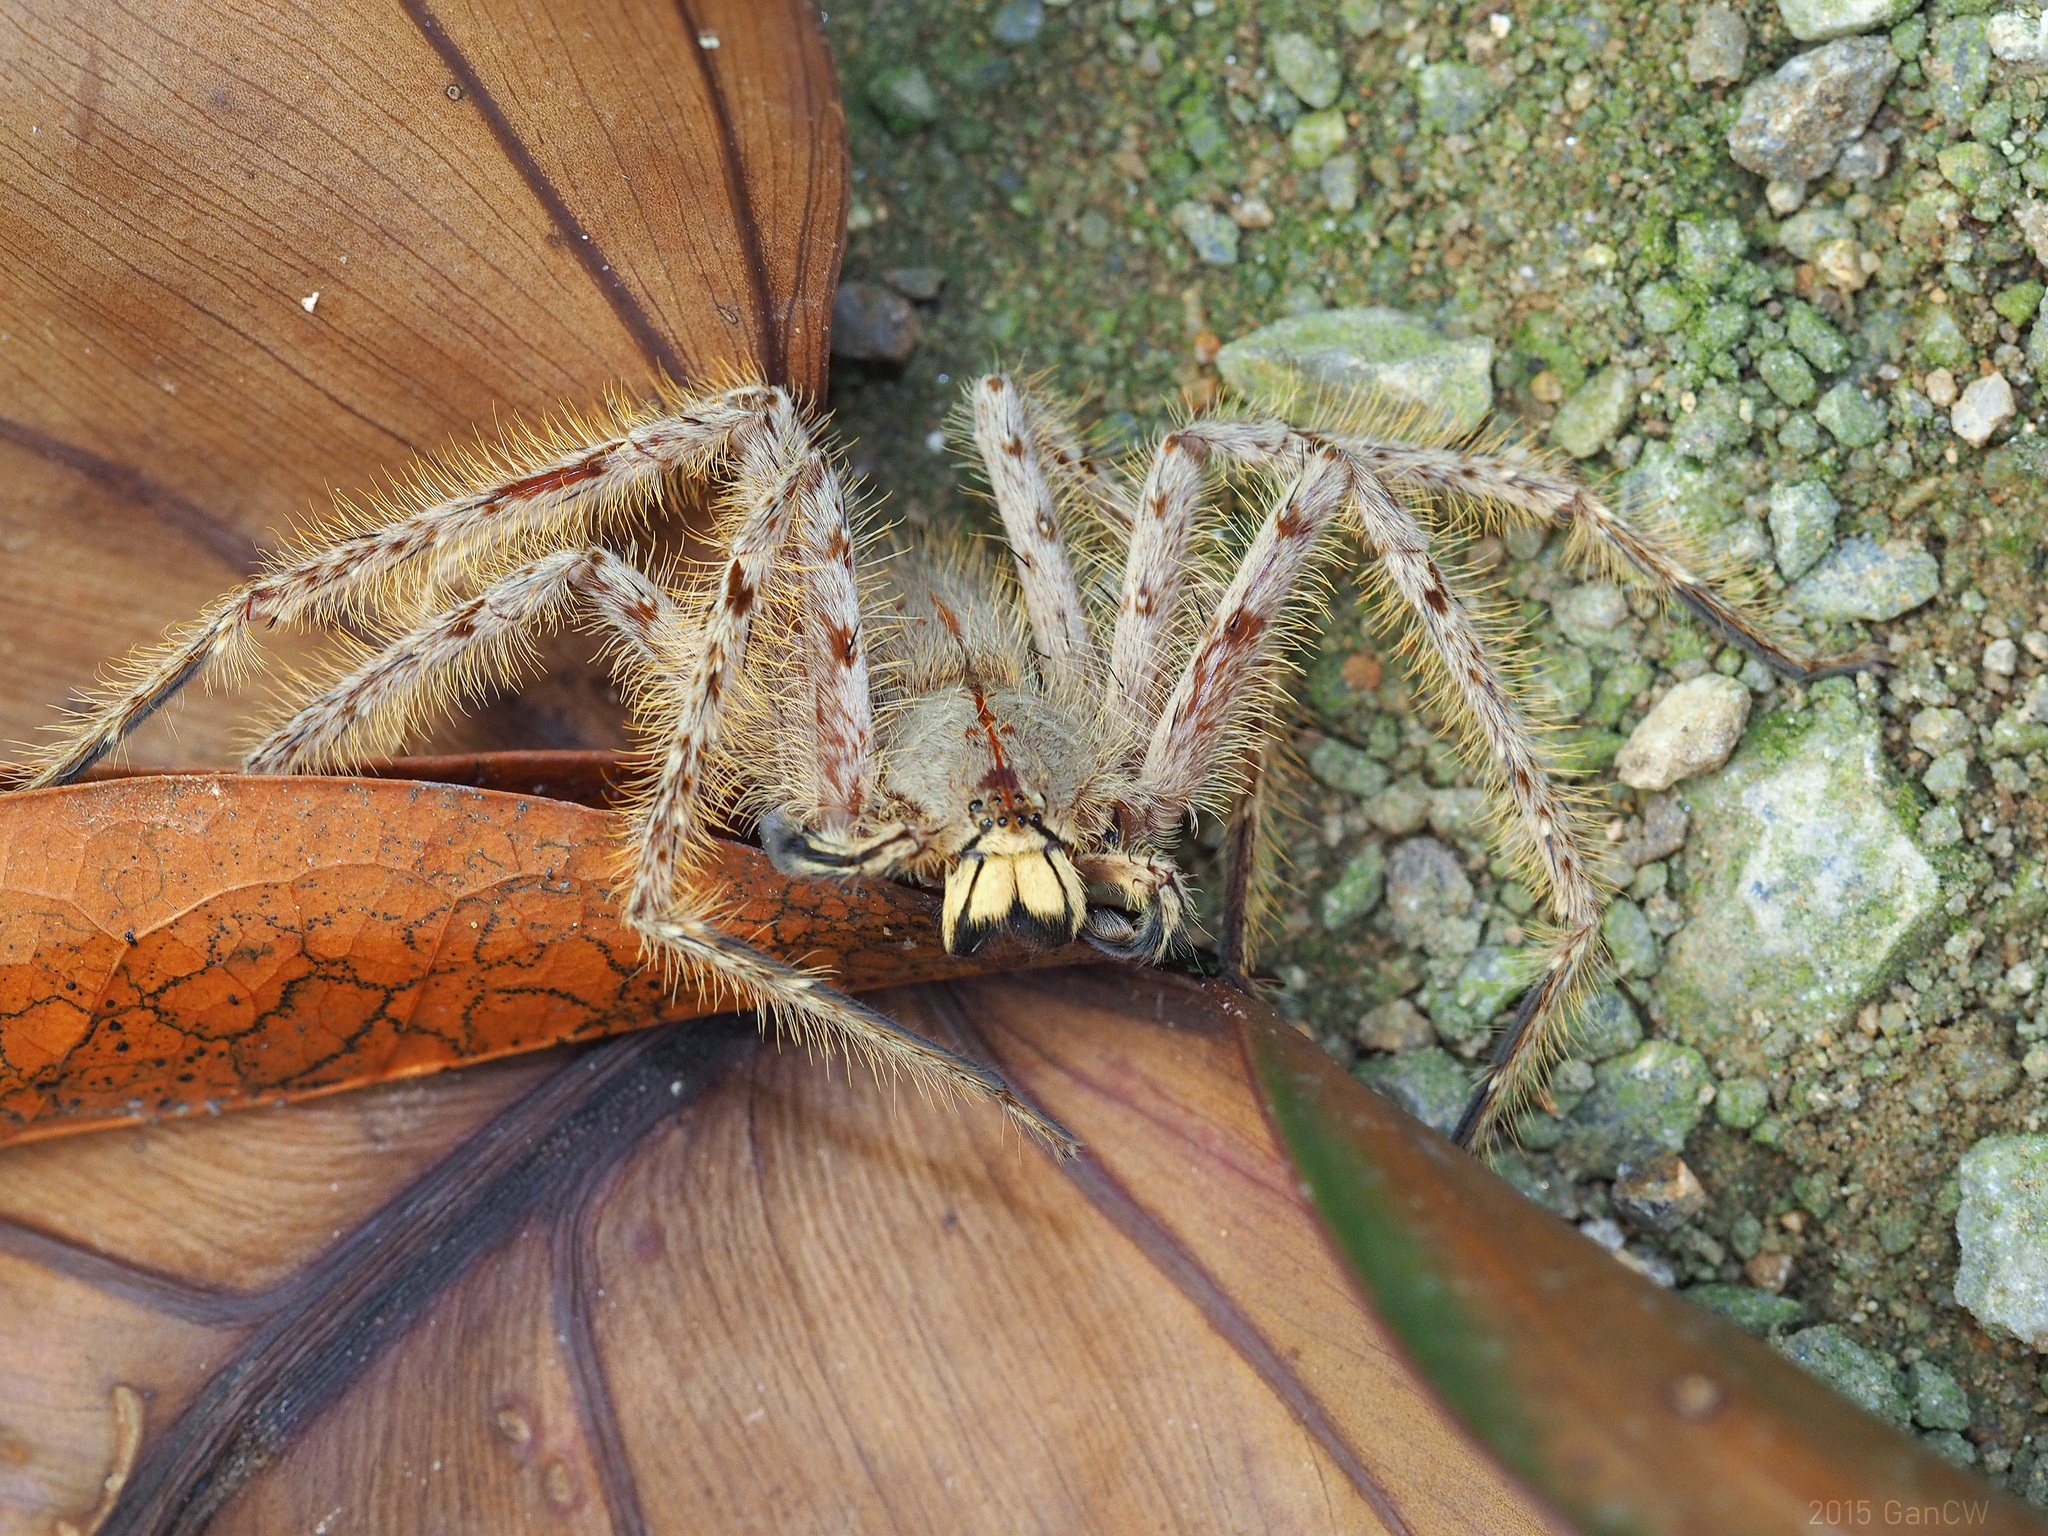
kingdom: Animalia
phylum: Arthropoda
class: Arachnida
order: Araneae
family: Sparassidae
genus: Heteropoda
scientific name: Heteropoda davidbowie
